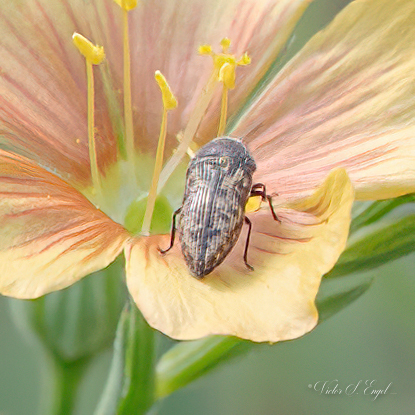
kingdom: Animalia
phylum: Arthropoda
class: Insecta
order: Coleoptera
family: Buprestidae
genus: Acmaeodera
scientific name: Acmaeodera neglecta
